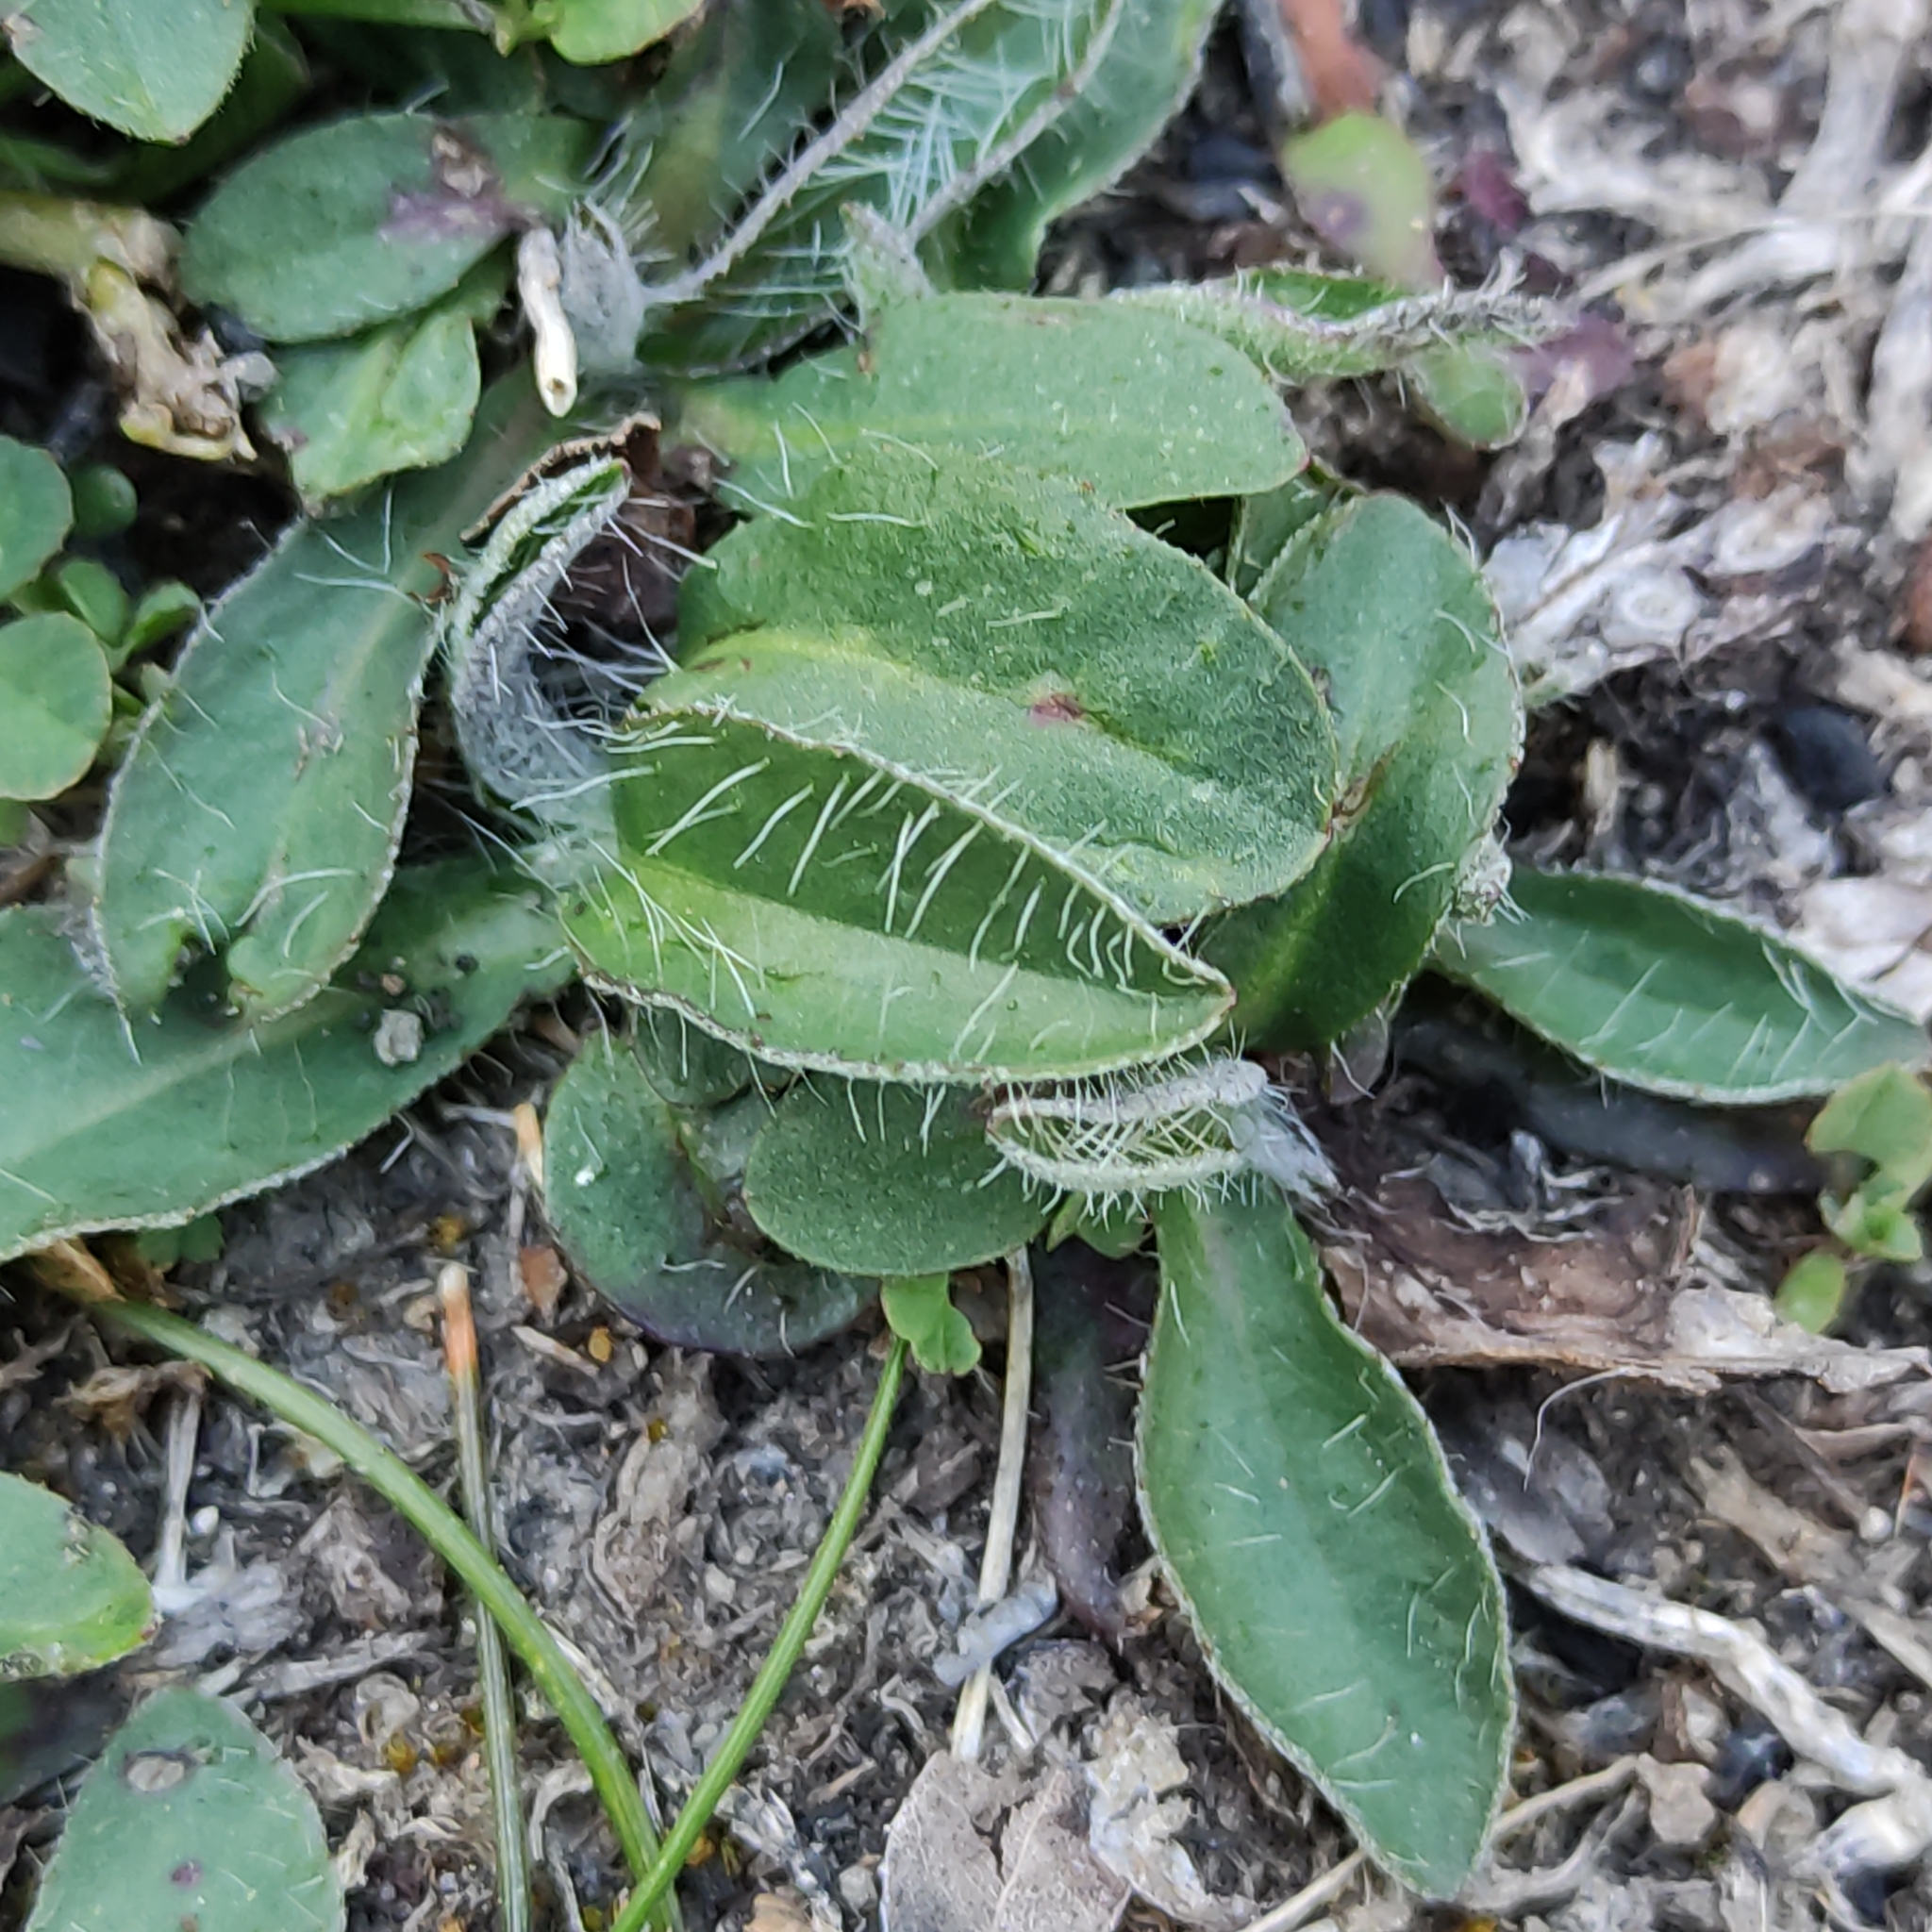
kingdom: Plantae
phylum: Tracheophyta
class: Magnoliopsida
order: Asterales
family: Asteraceae
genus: Pilosella
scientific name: Pilosella officinarum
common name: Mouse-ear hawkweed
